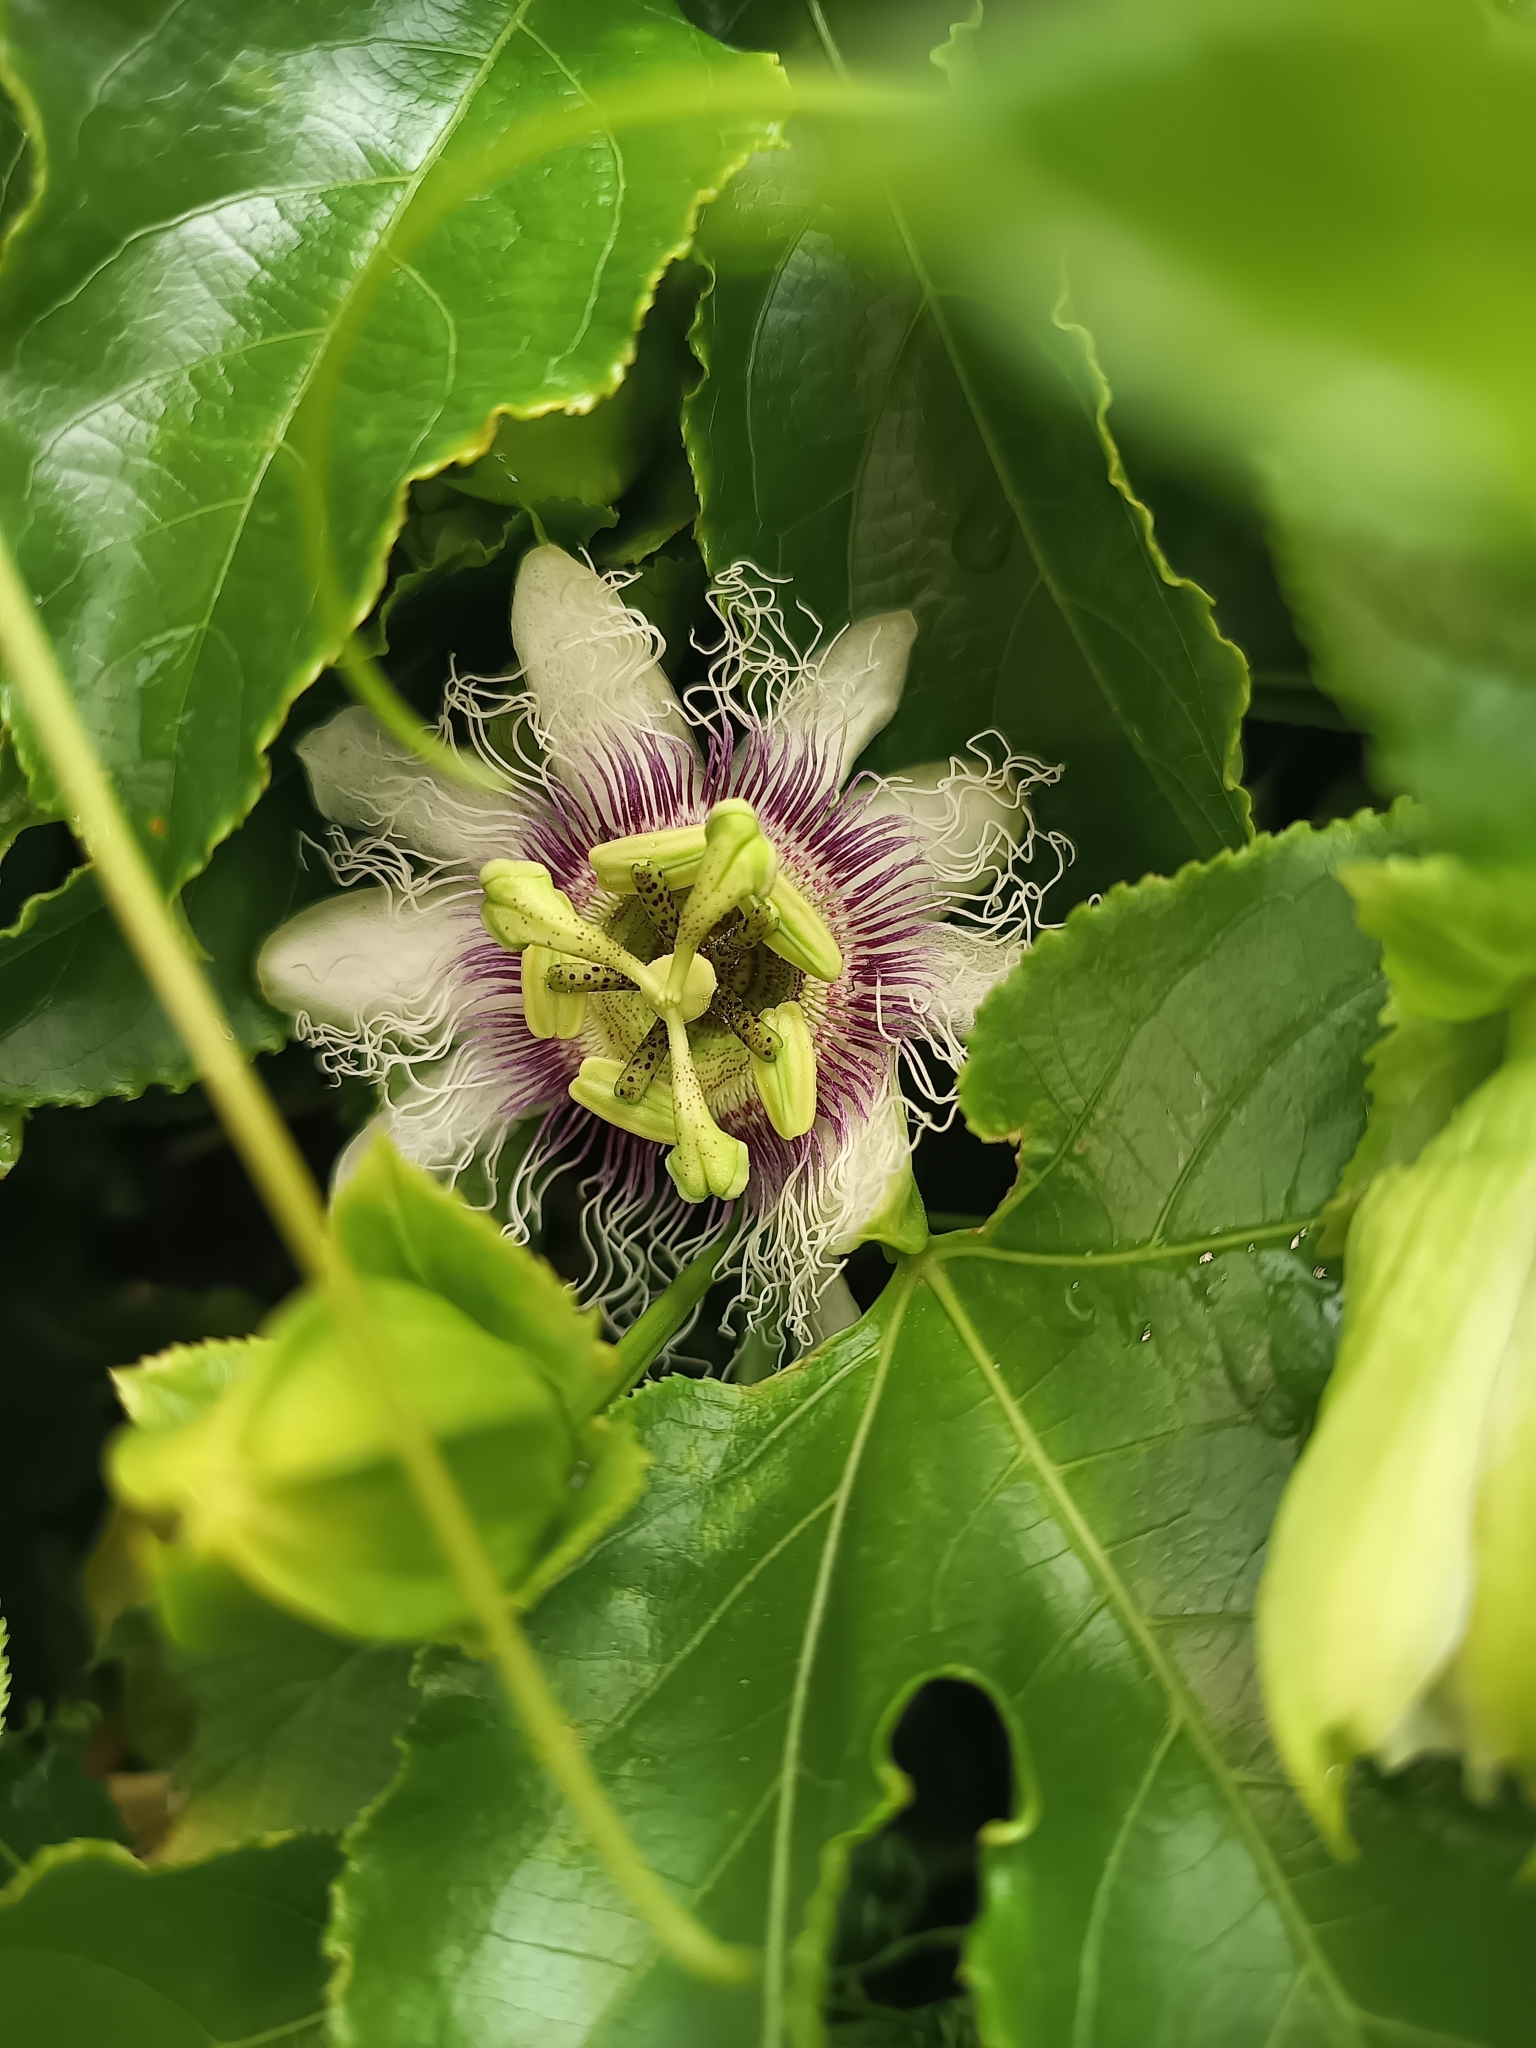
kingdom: Plantae
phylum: Tracheophyta
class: Magnoliopsida
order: Malpighiales
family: Passifloraceae
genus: Passiflora
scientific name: Passiflora edulis
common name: Purple granadilla
